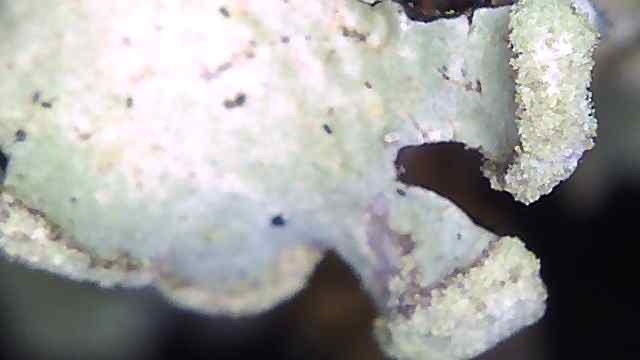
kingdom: Fungi
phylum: Ascomycota
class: Lecanoromycetes
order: Lecanorales
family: Parmeliaceae
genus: Hypotrachyna
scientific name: Hypotrachyna sinuosa
